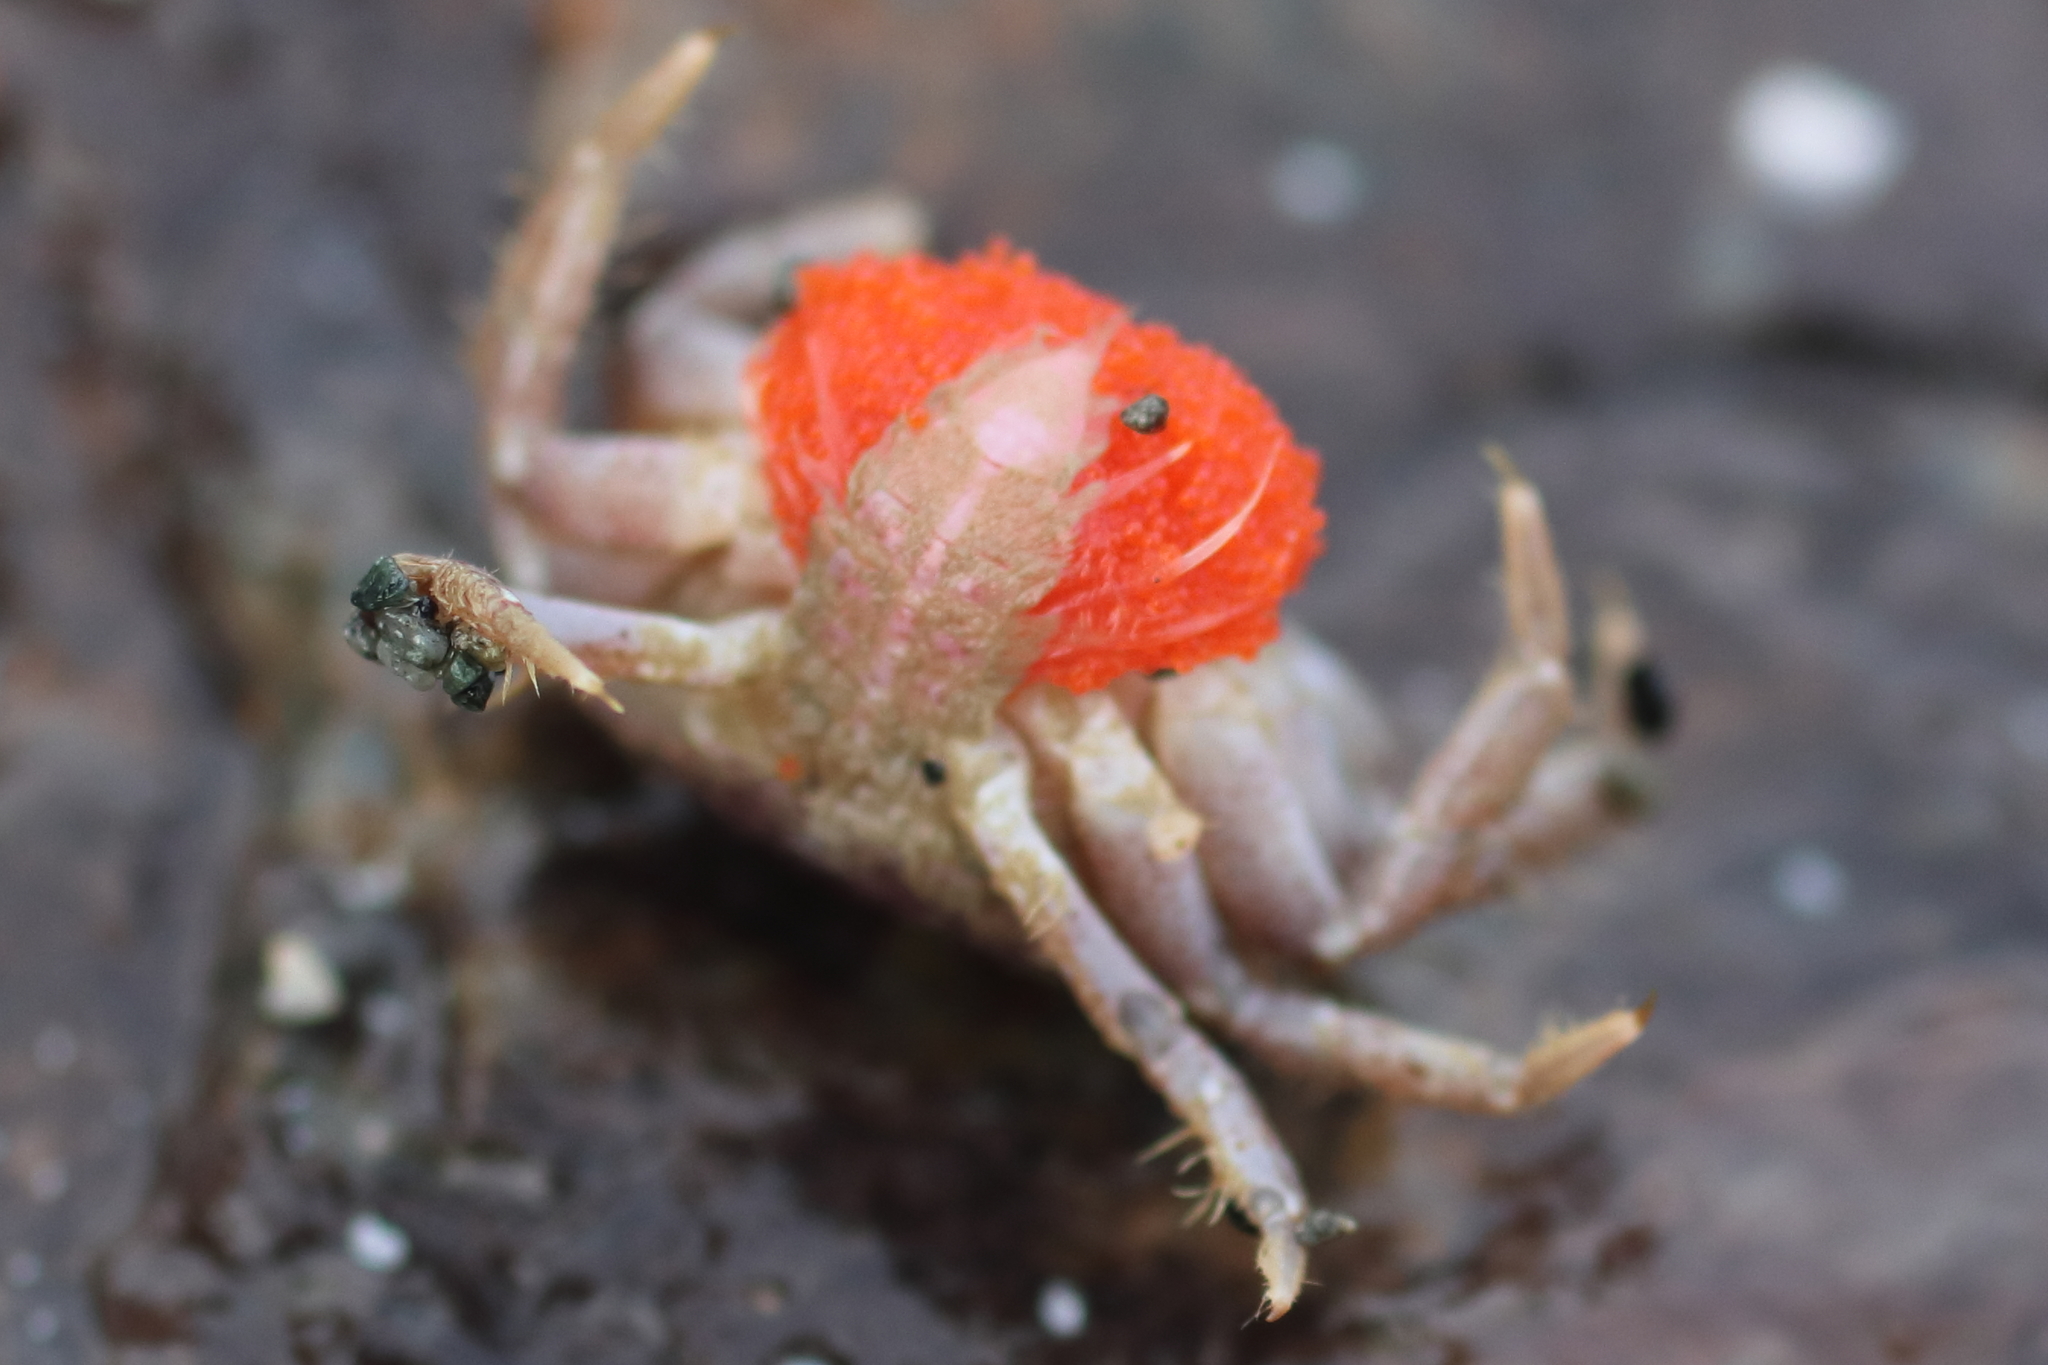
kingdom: Animalia
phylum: Arthropoda
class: Malacostraca
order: Decapoda
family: Cancridae
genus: Glebocarcinus
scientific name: Glebocarcinus oregonensis
